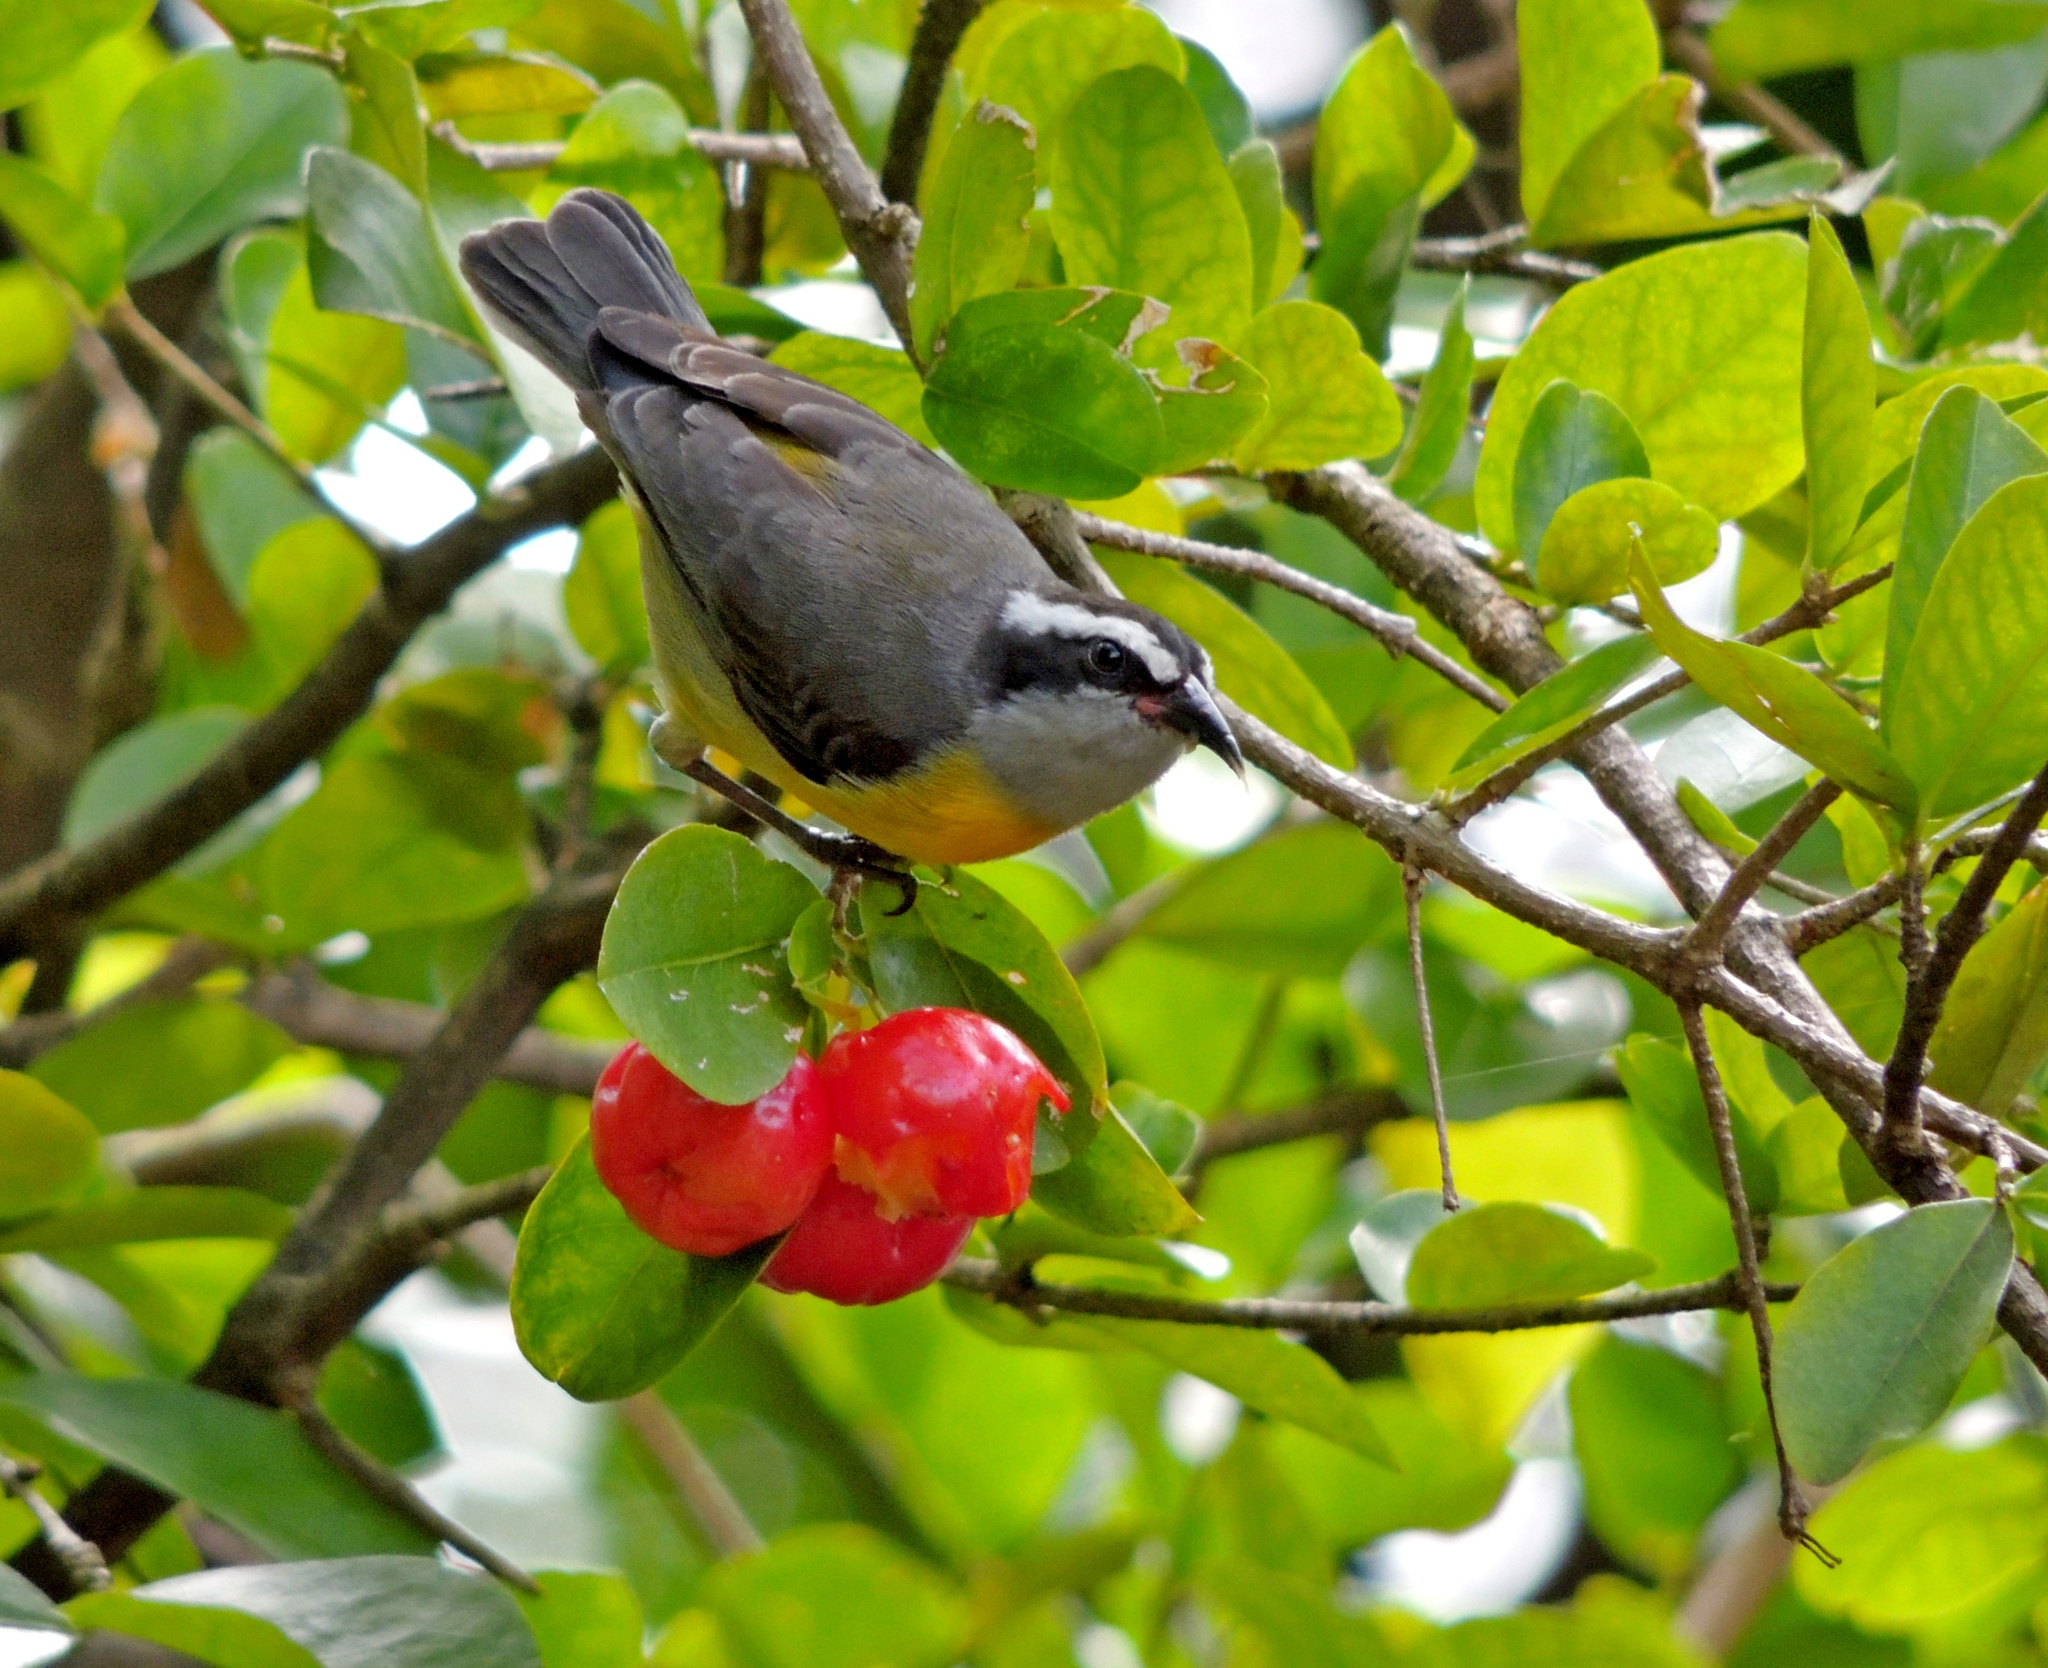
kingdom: Animalia
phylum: Chordata
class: Aves
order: Passeriformes
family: Thraupidae
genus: Coereba
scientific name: Coereba flaveola
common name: Bananaquit
